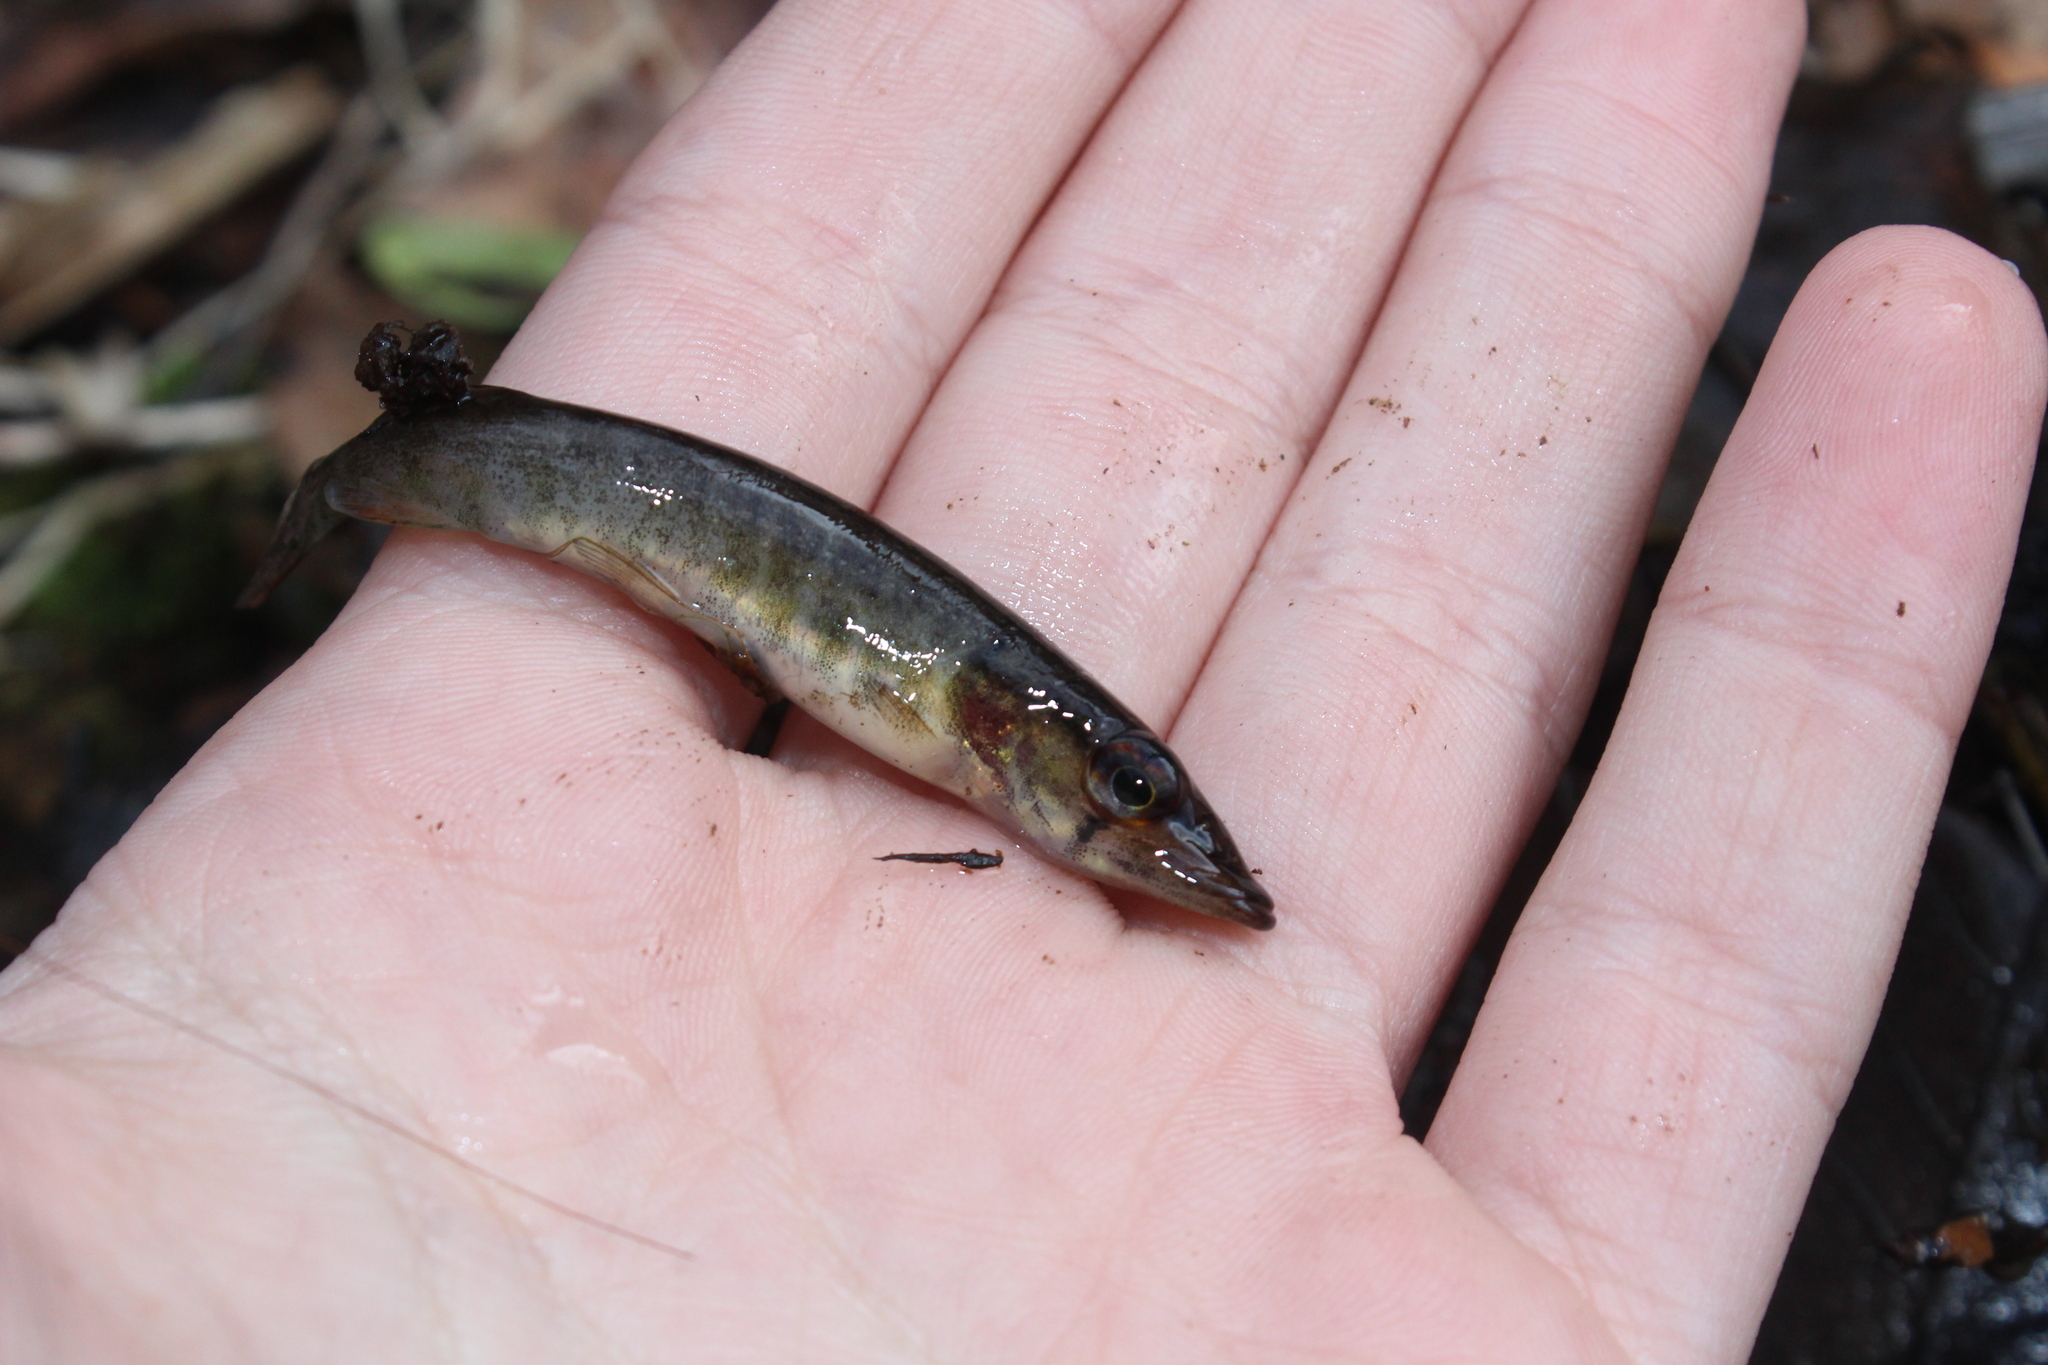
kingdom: Animalia
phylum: Chordata
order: Esociformes
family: Esocidae
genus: Esox
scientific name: Esox americanus
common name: Redfin pickerel
